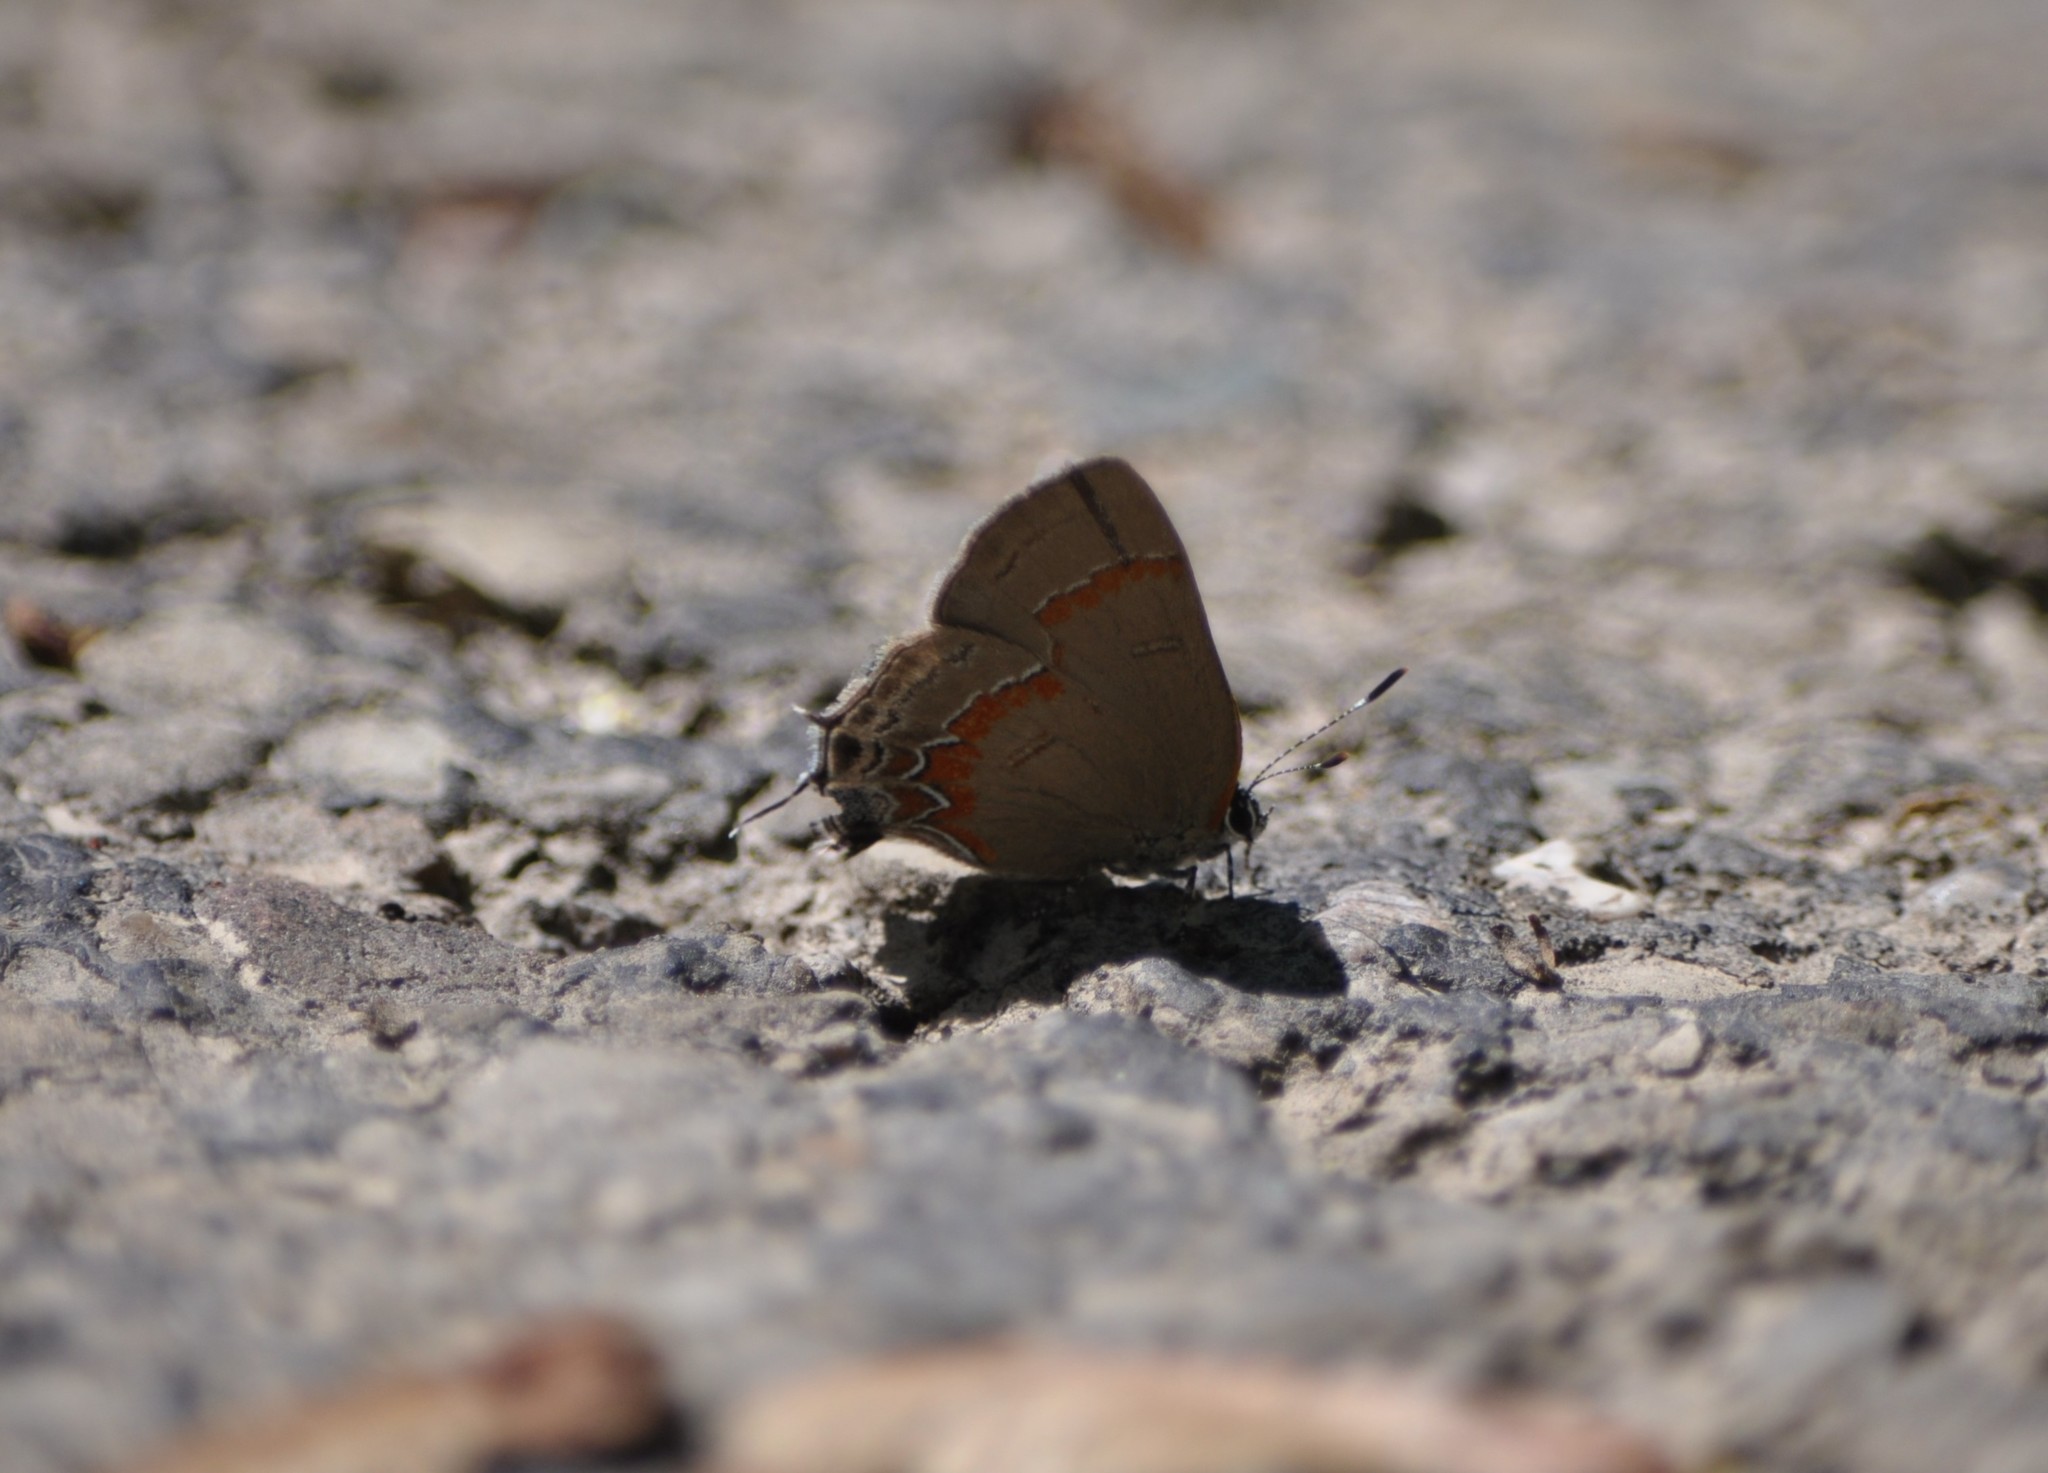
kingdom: Animalia
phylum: Arthropoda
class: Insecta
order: Lepidoptera
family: Lycaenidae
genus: Calycopis
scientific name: Calycopis cecrops
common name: Red-banded hairstreak
